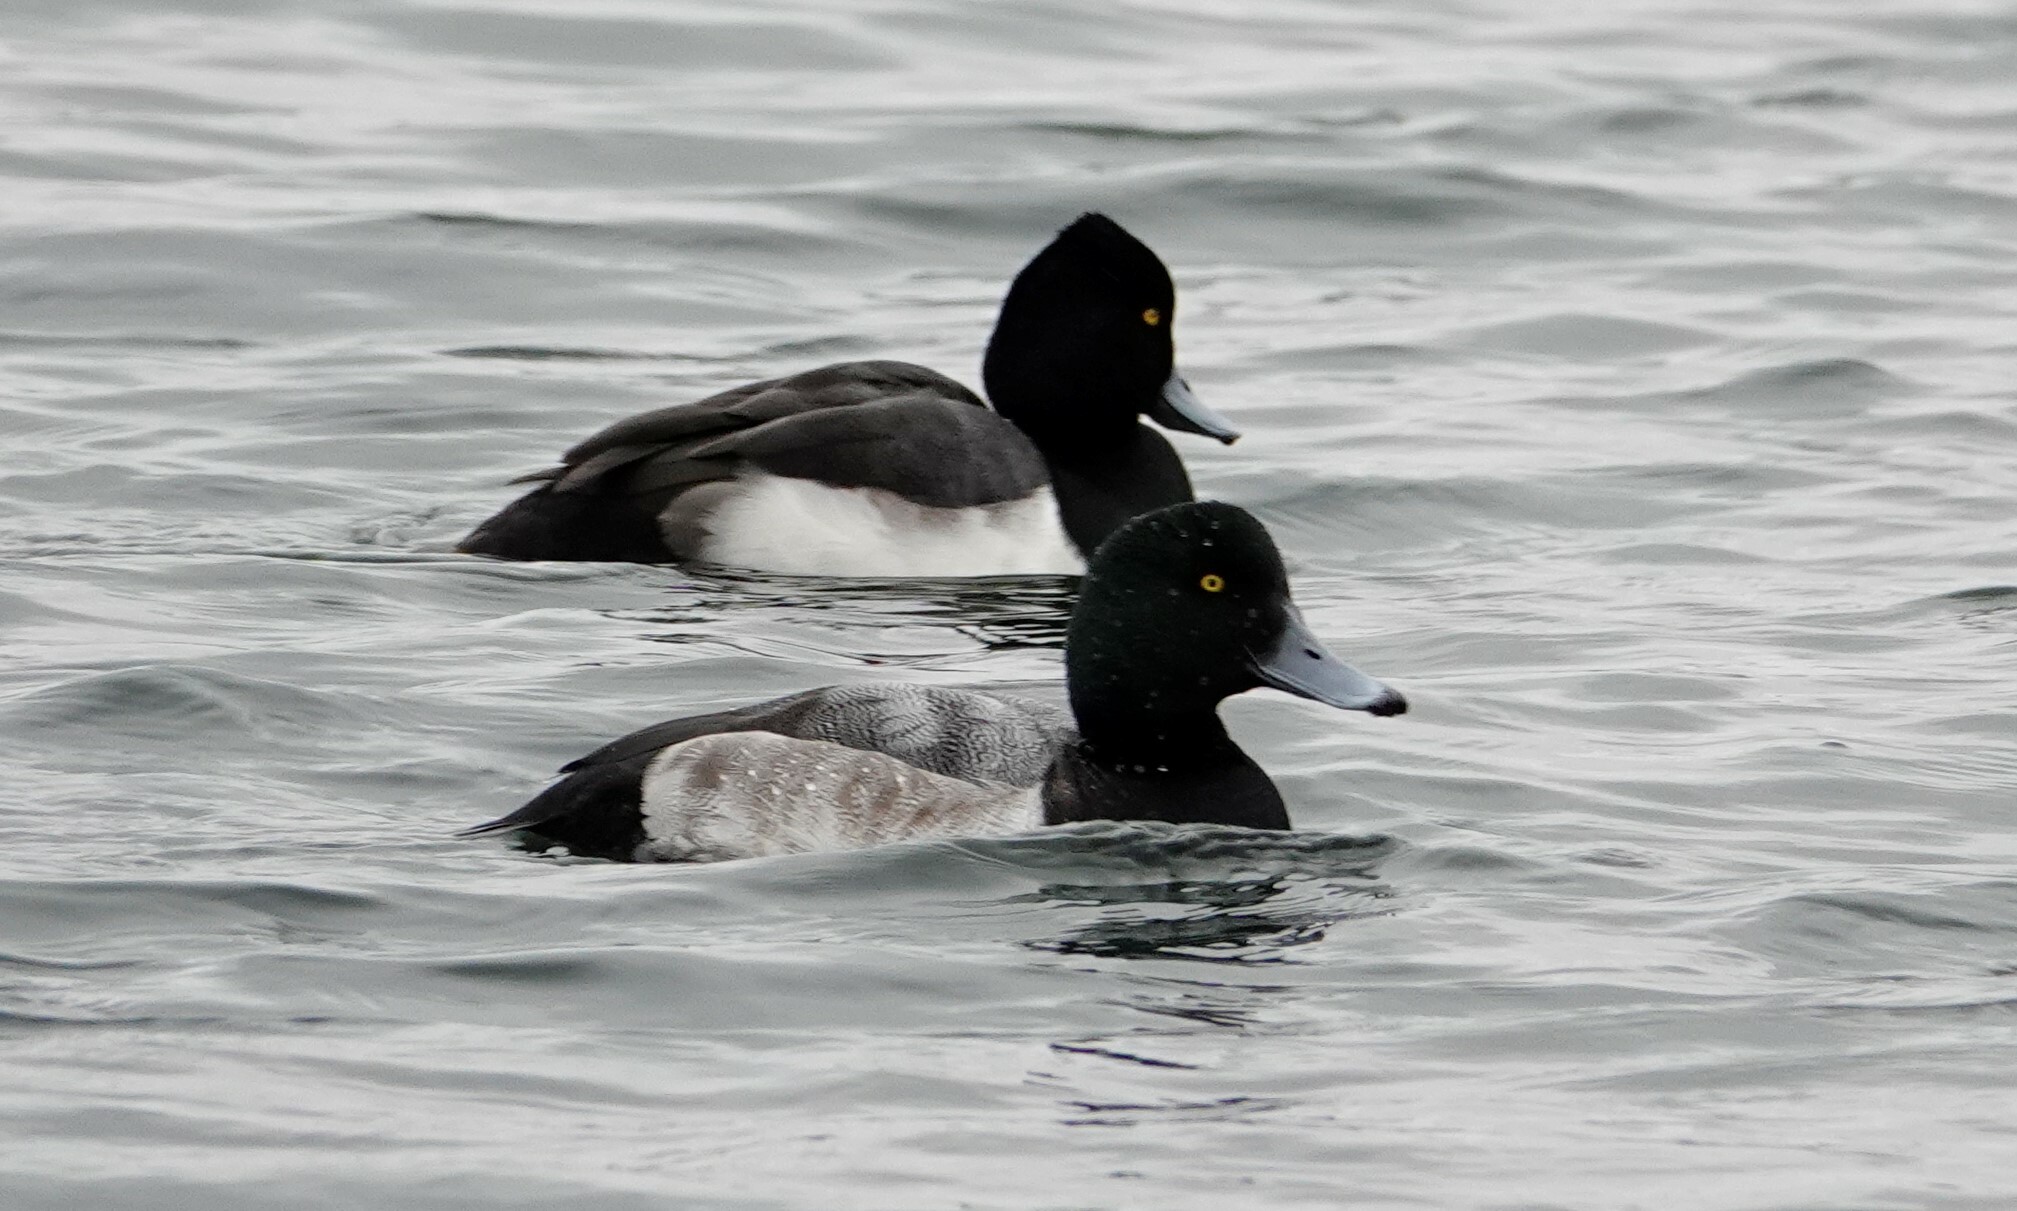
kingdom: Animalia
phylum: Chordata
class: Aves
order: Anseriformes
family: Anatidae
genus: Aythya
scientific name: Aythya marila
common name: Greater scaup
